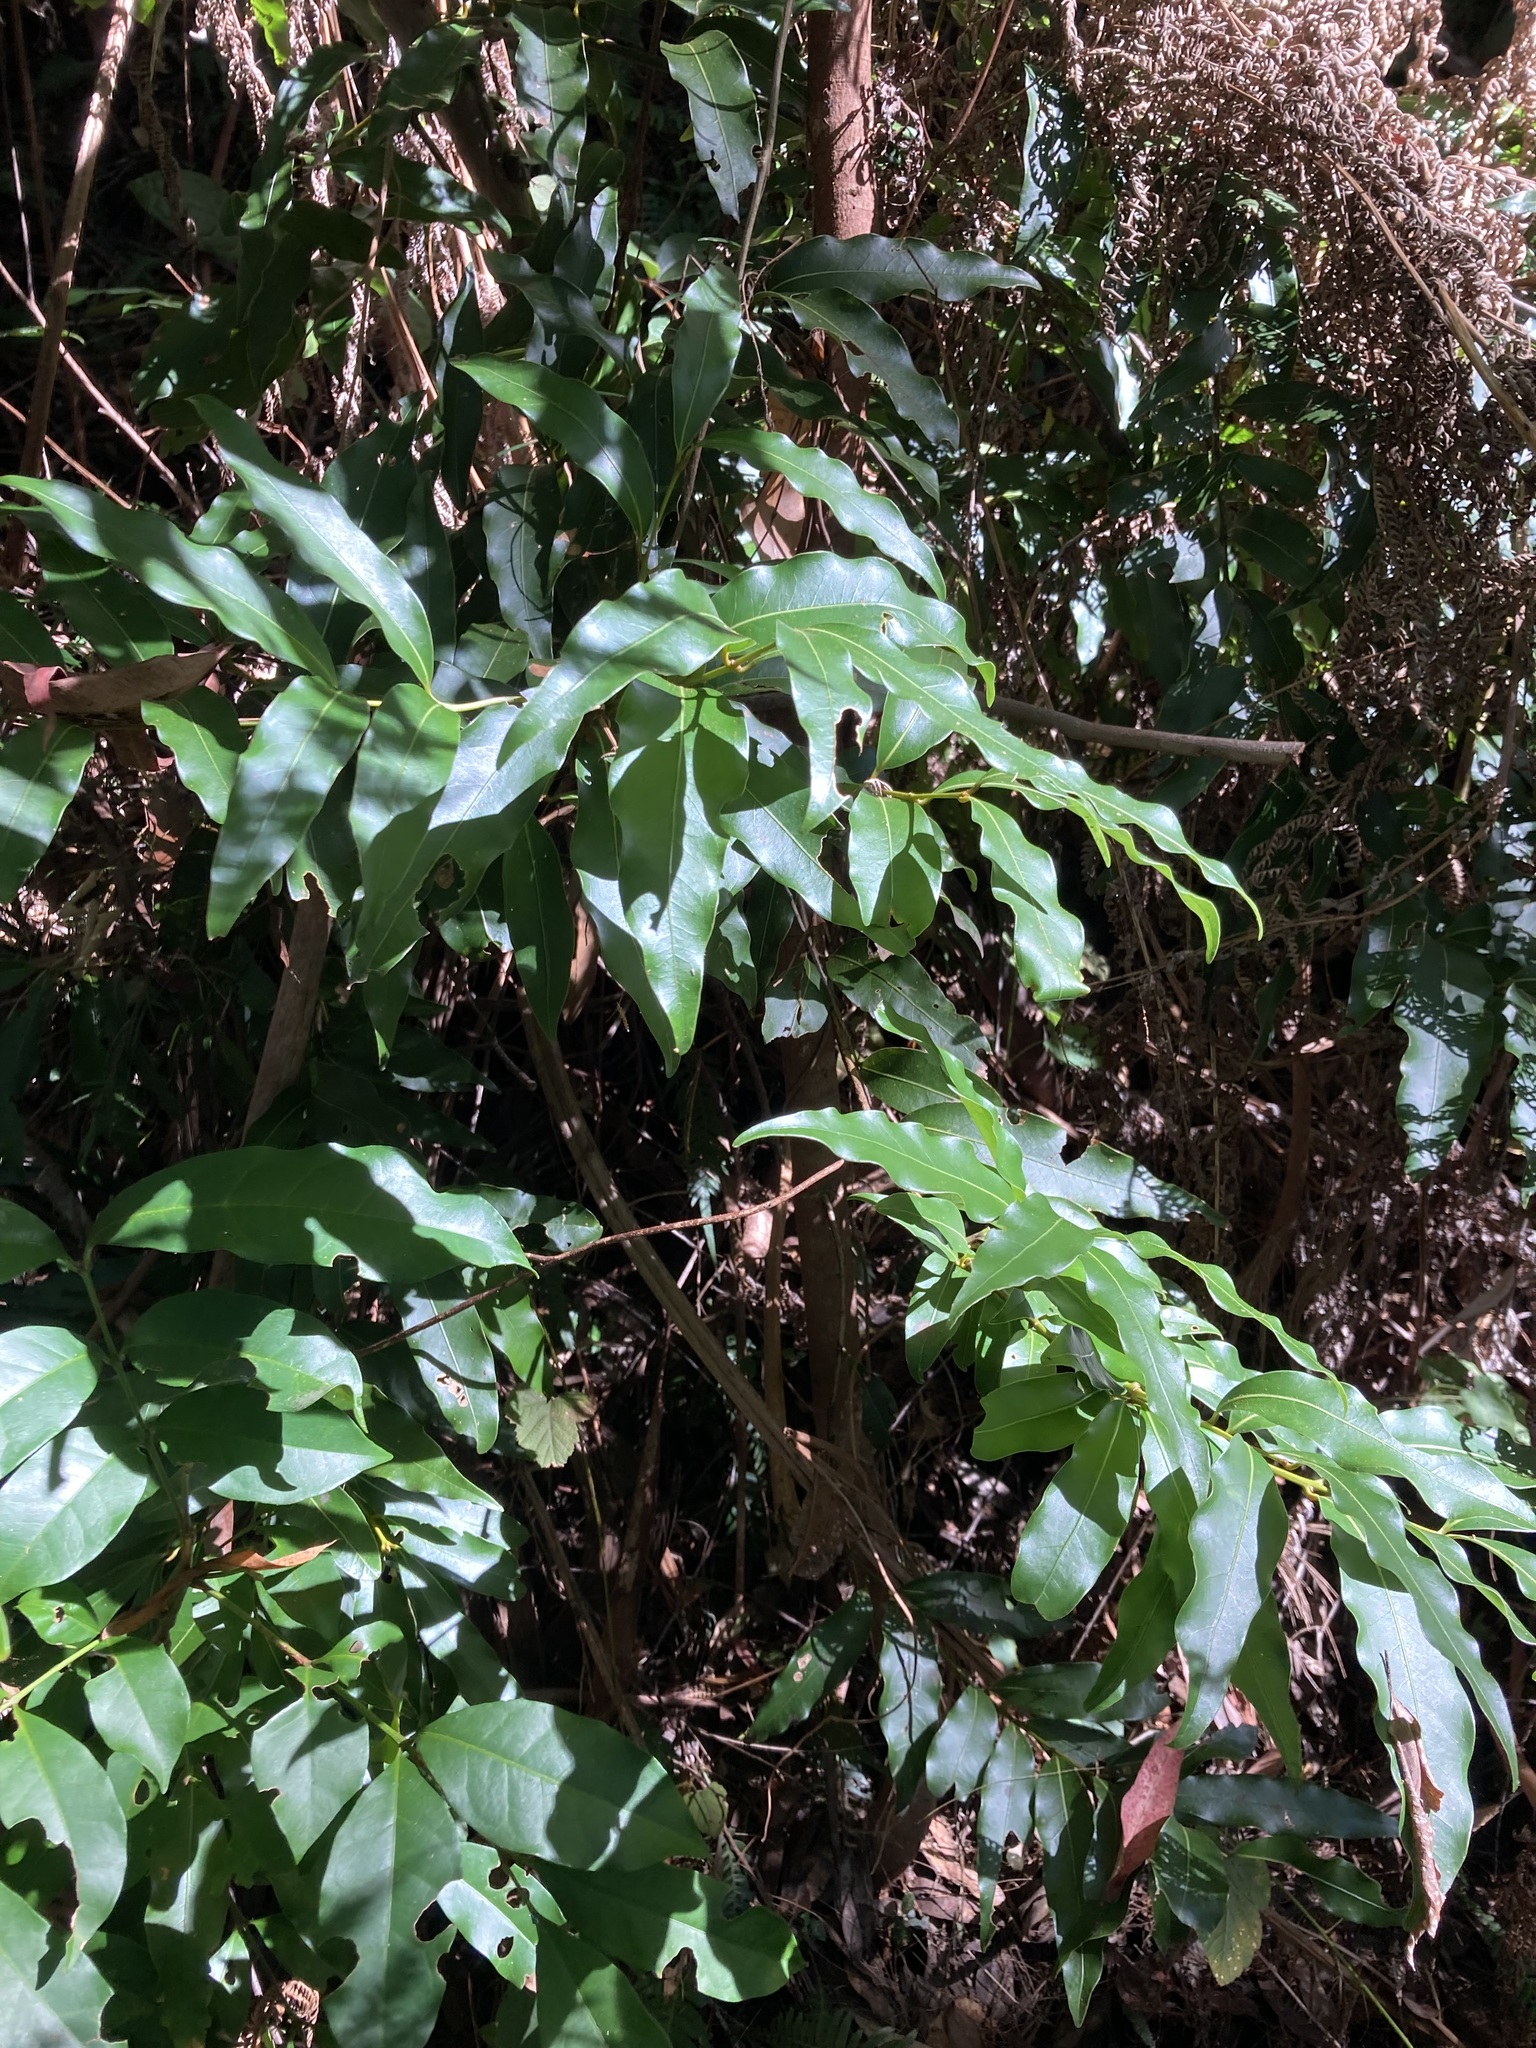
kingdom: Plantae
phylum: Tracheophyta
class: Magnoliopsida
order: Laurales
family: Lauraceae
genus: Cinnamomum
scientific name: Cinnamomum oliveri
